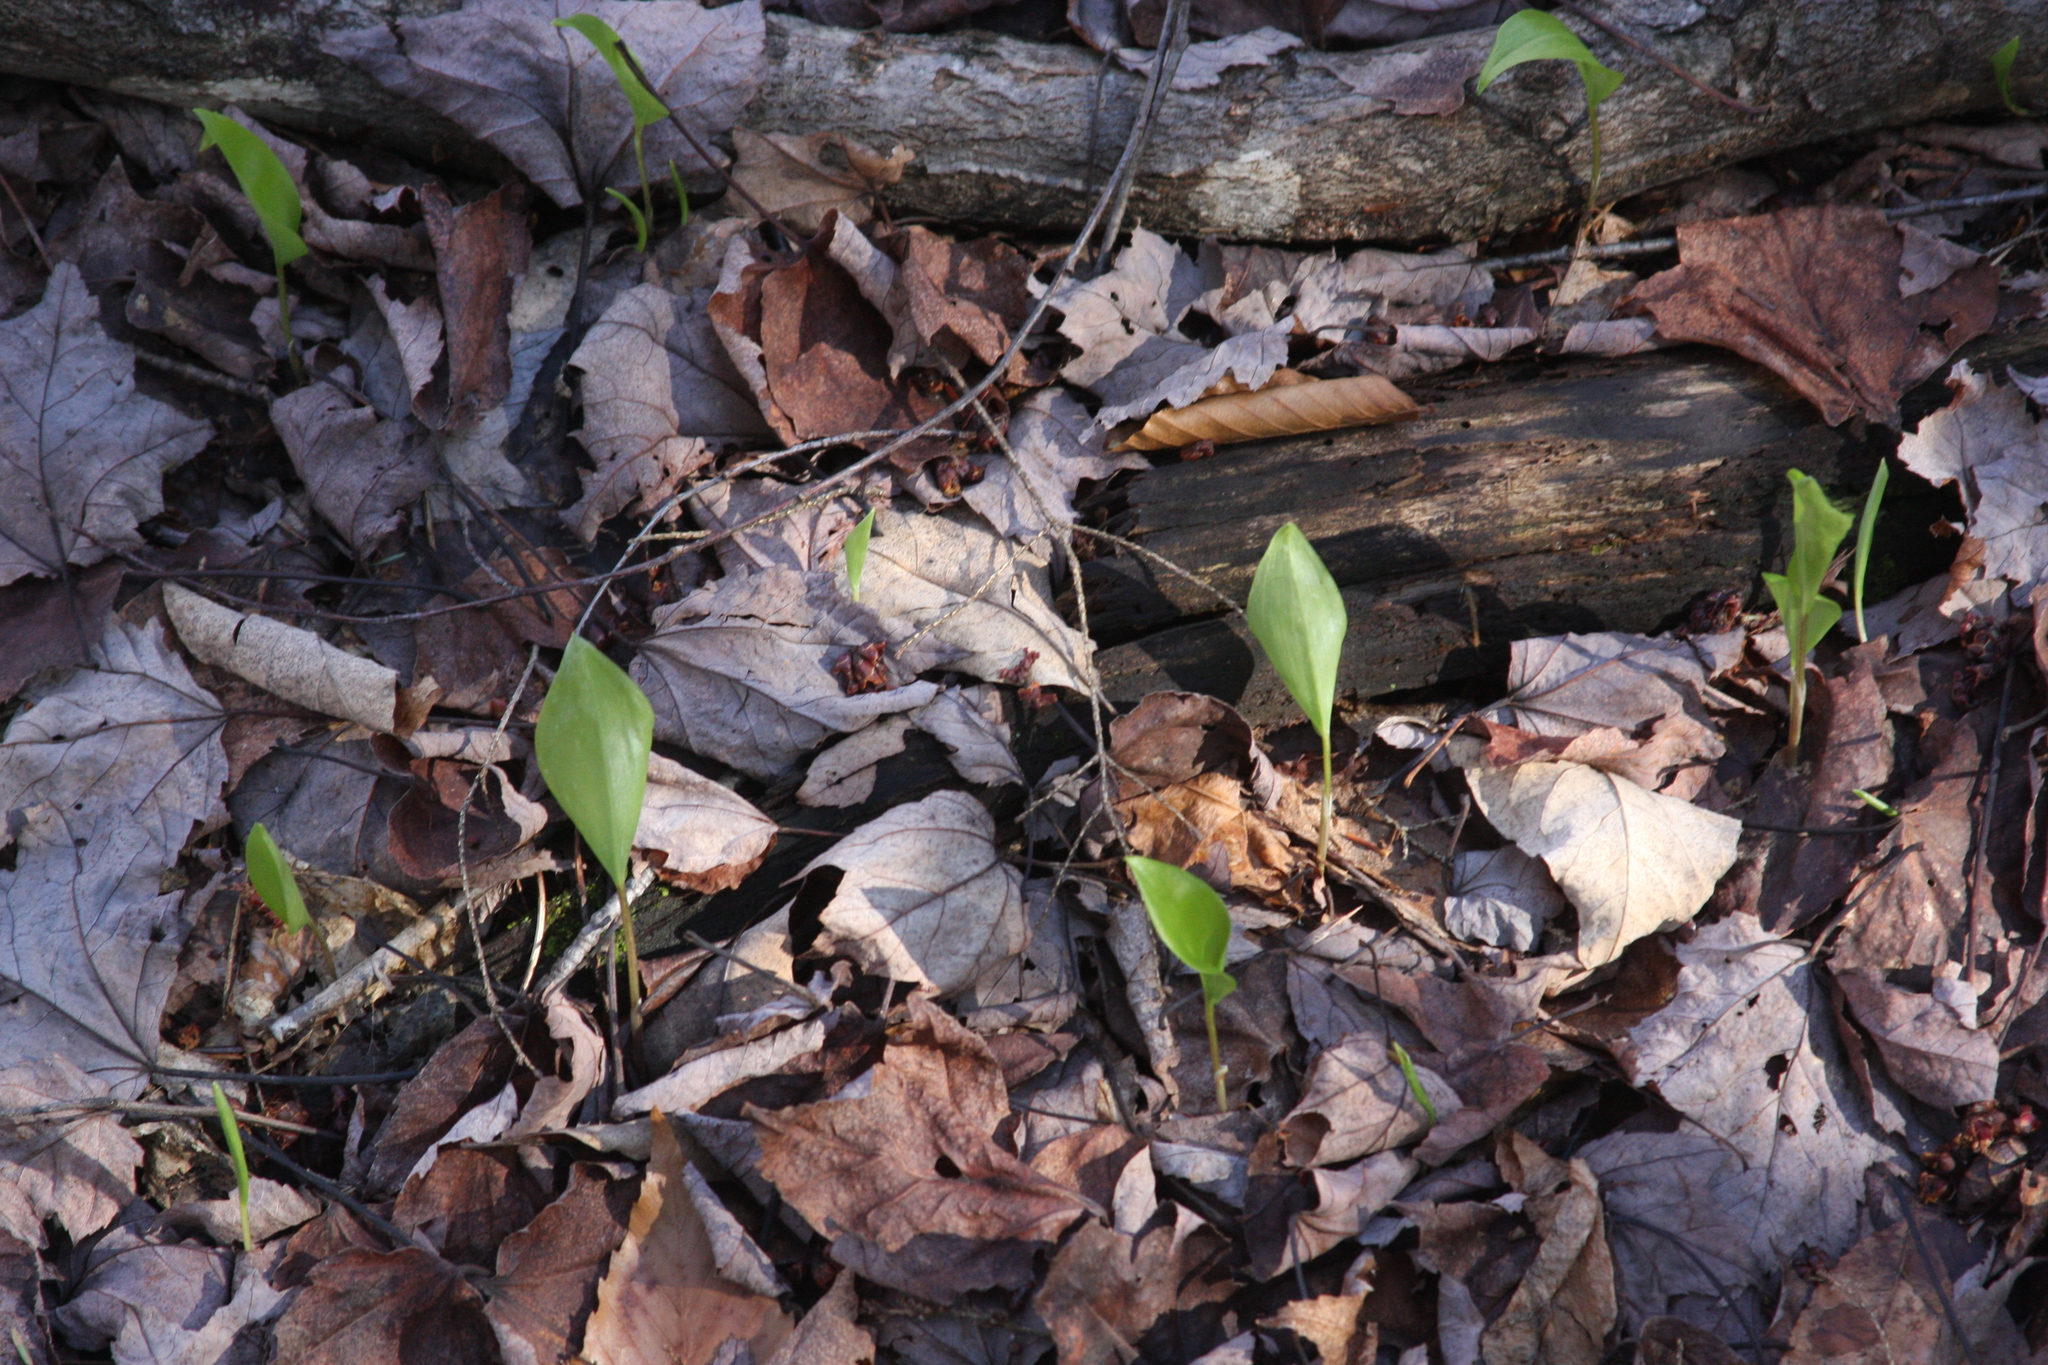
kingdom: Plantae
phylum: Tracheophyta
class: Liliopsida
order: Asparagales
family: Asparagaceae
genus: Maianthemum
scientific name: Maianthemum canadense
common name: False lily-of-the-valley
